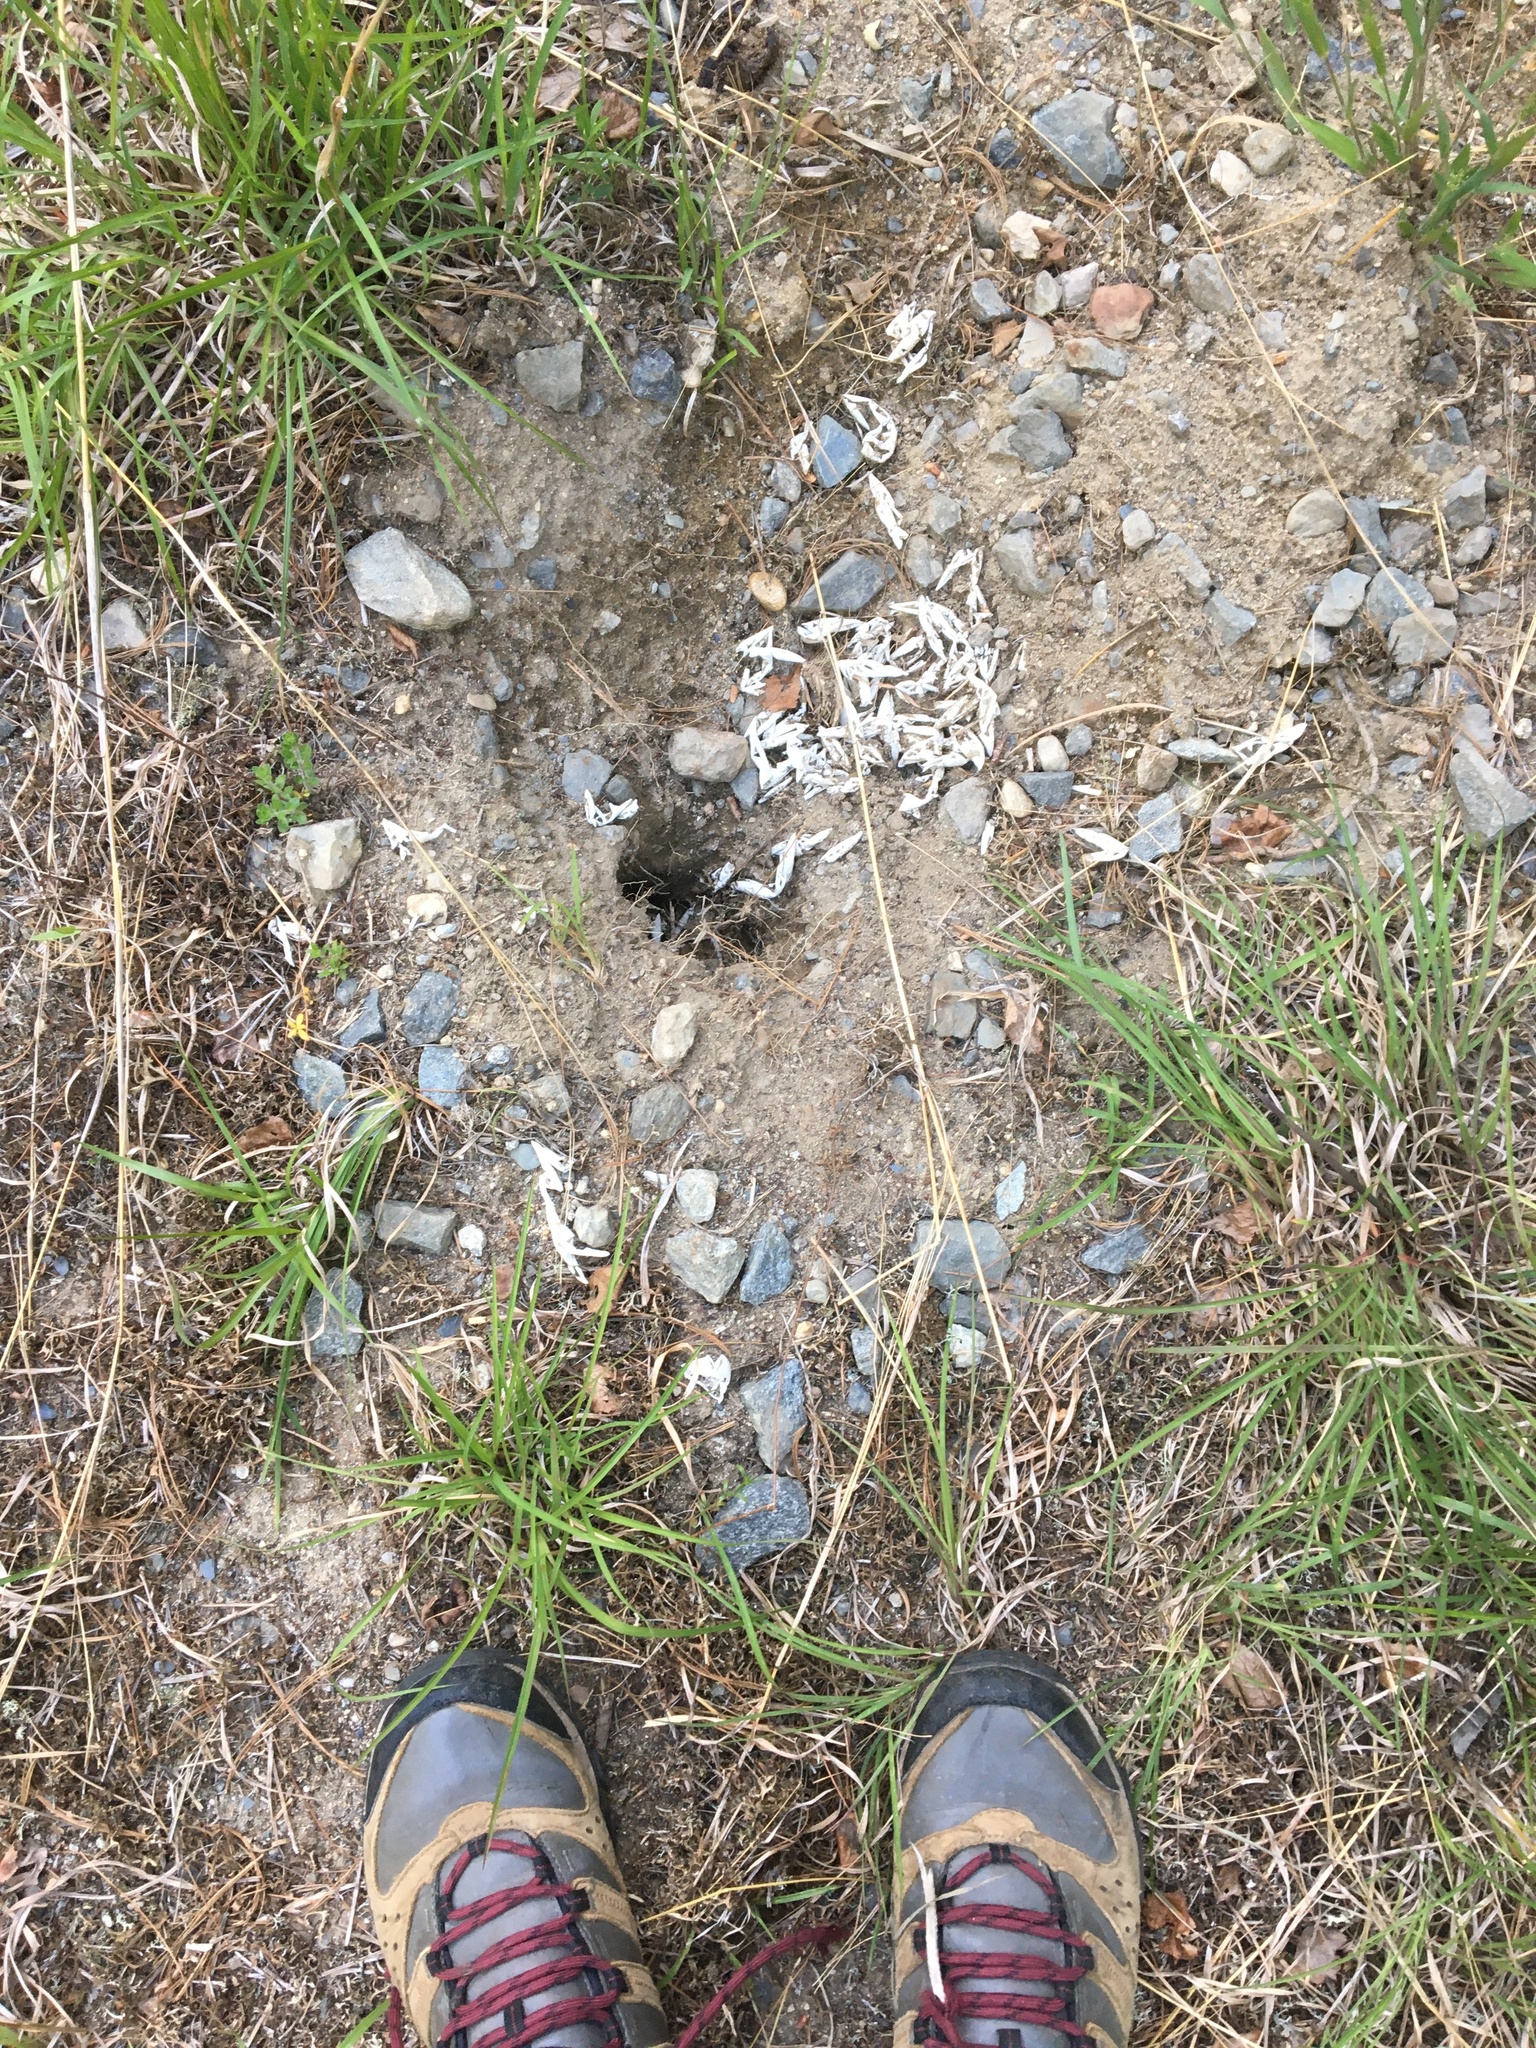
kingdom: Animalia
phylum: Chordata
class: Testudines
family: Chelydridae
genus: Chelydra
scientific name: Chelydra serpentina
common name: Common snapping turtle
